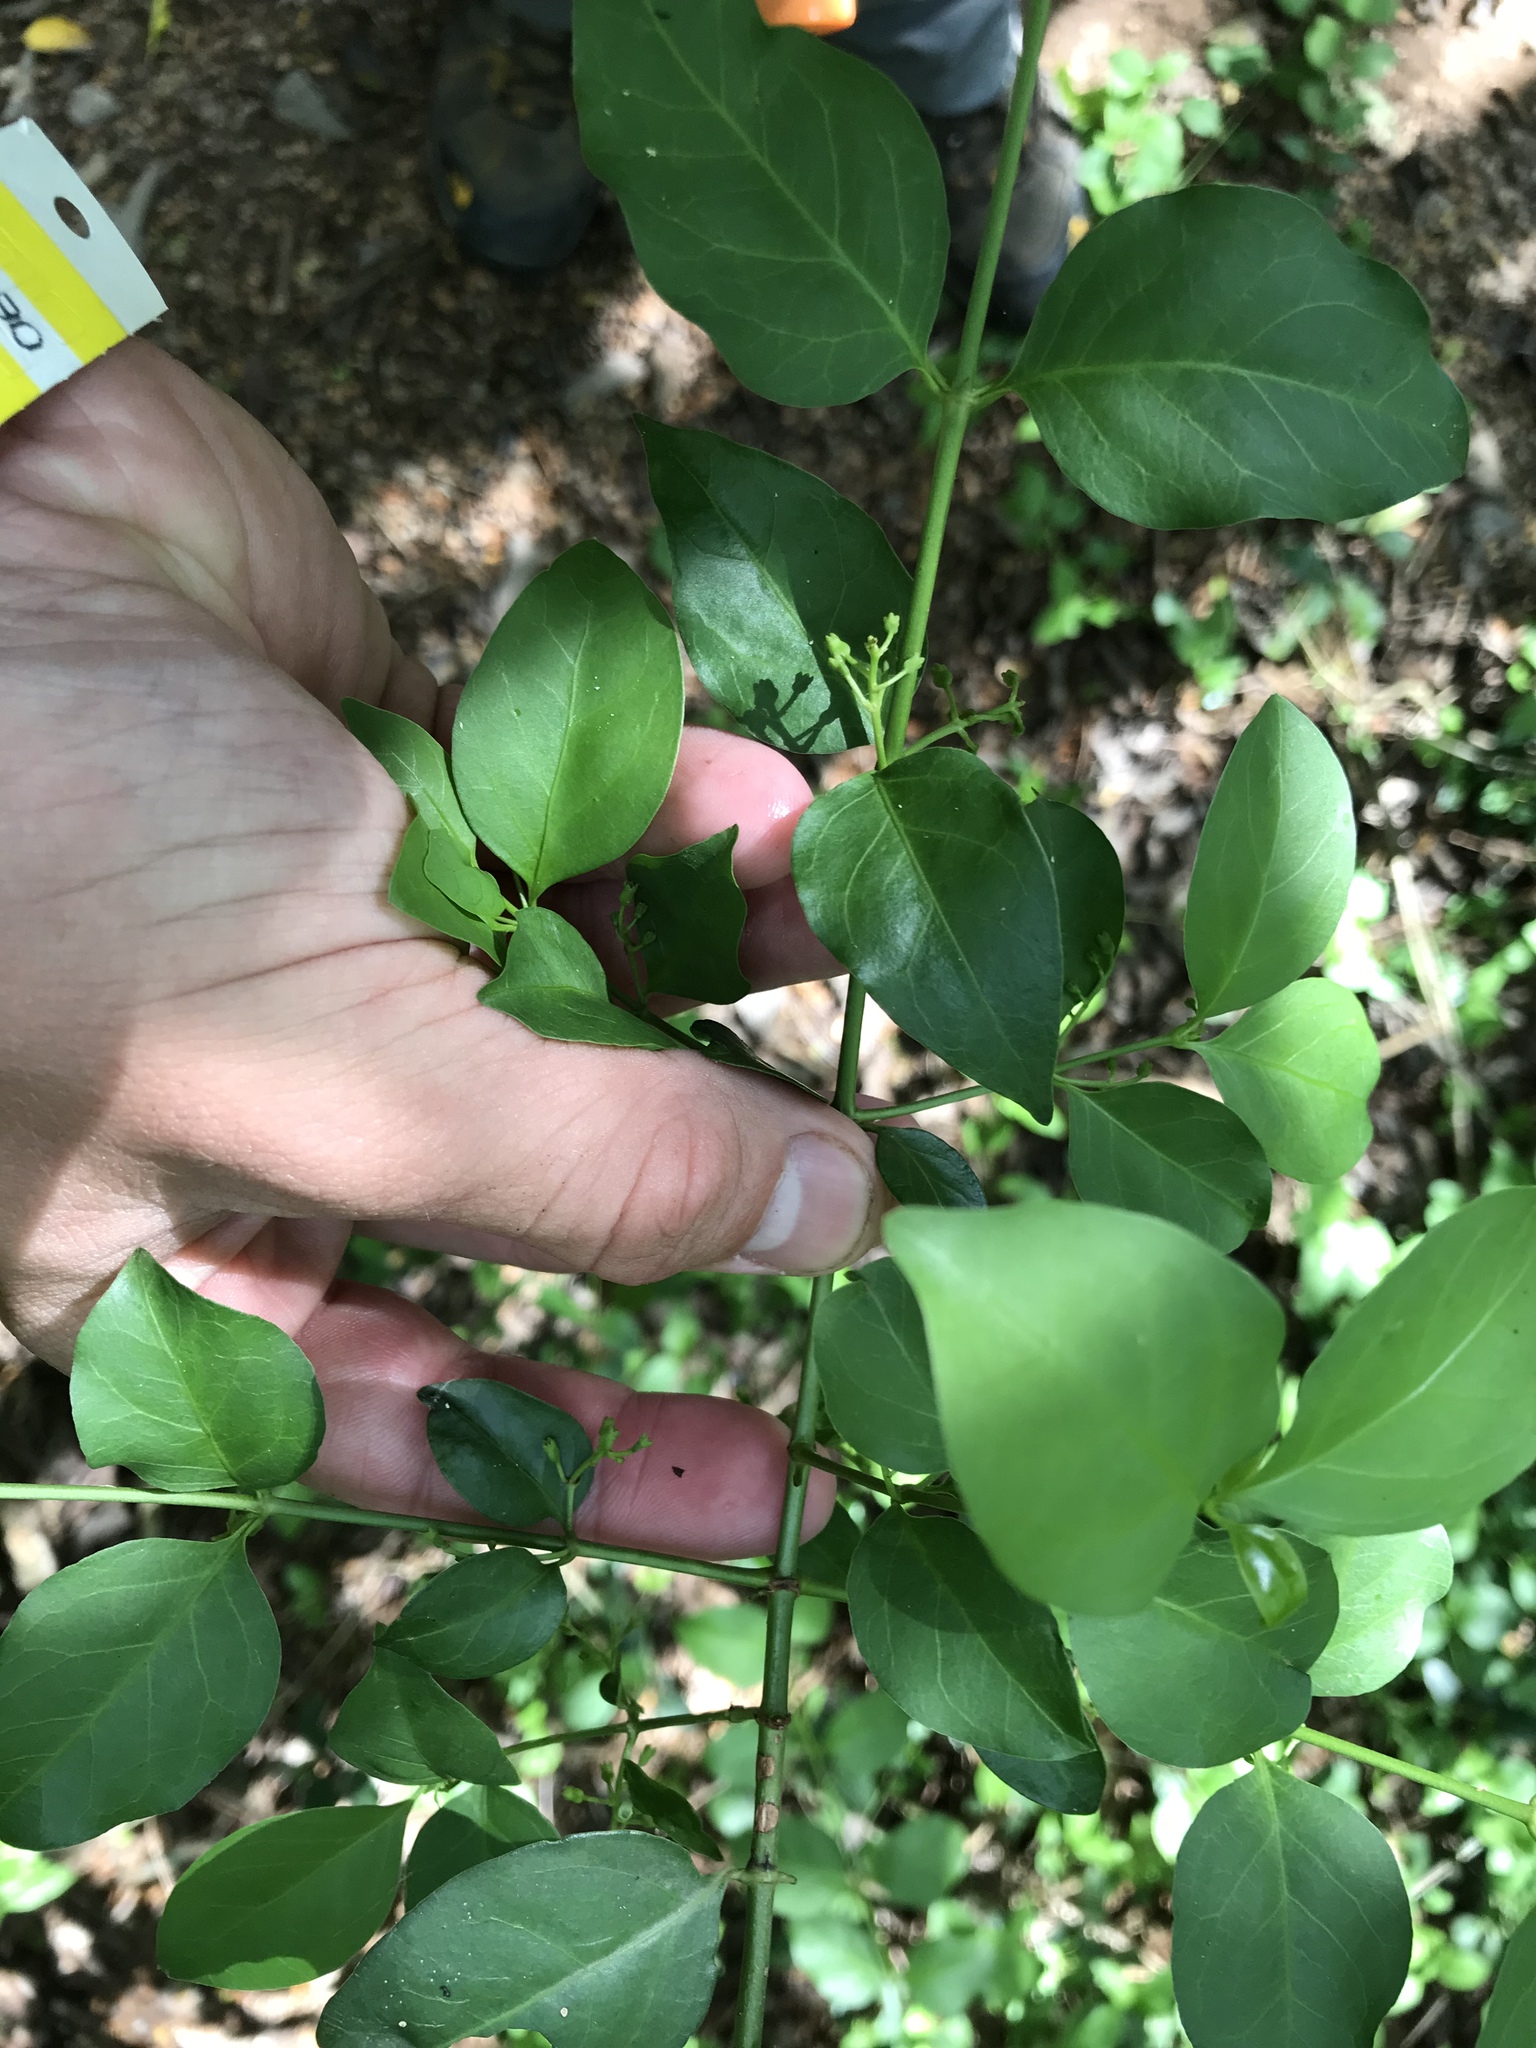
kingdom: Plantae
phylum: Tracheophyta
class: Magnoliopsida
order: Gentianales
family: Rubiaceae
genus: Chiococca
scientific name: Chiococca alba
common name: Snowberry
